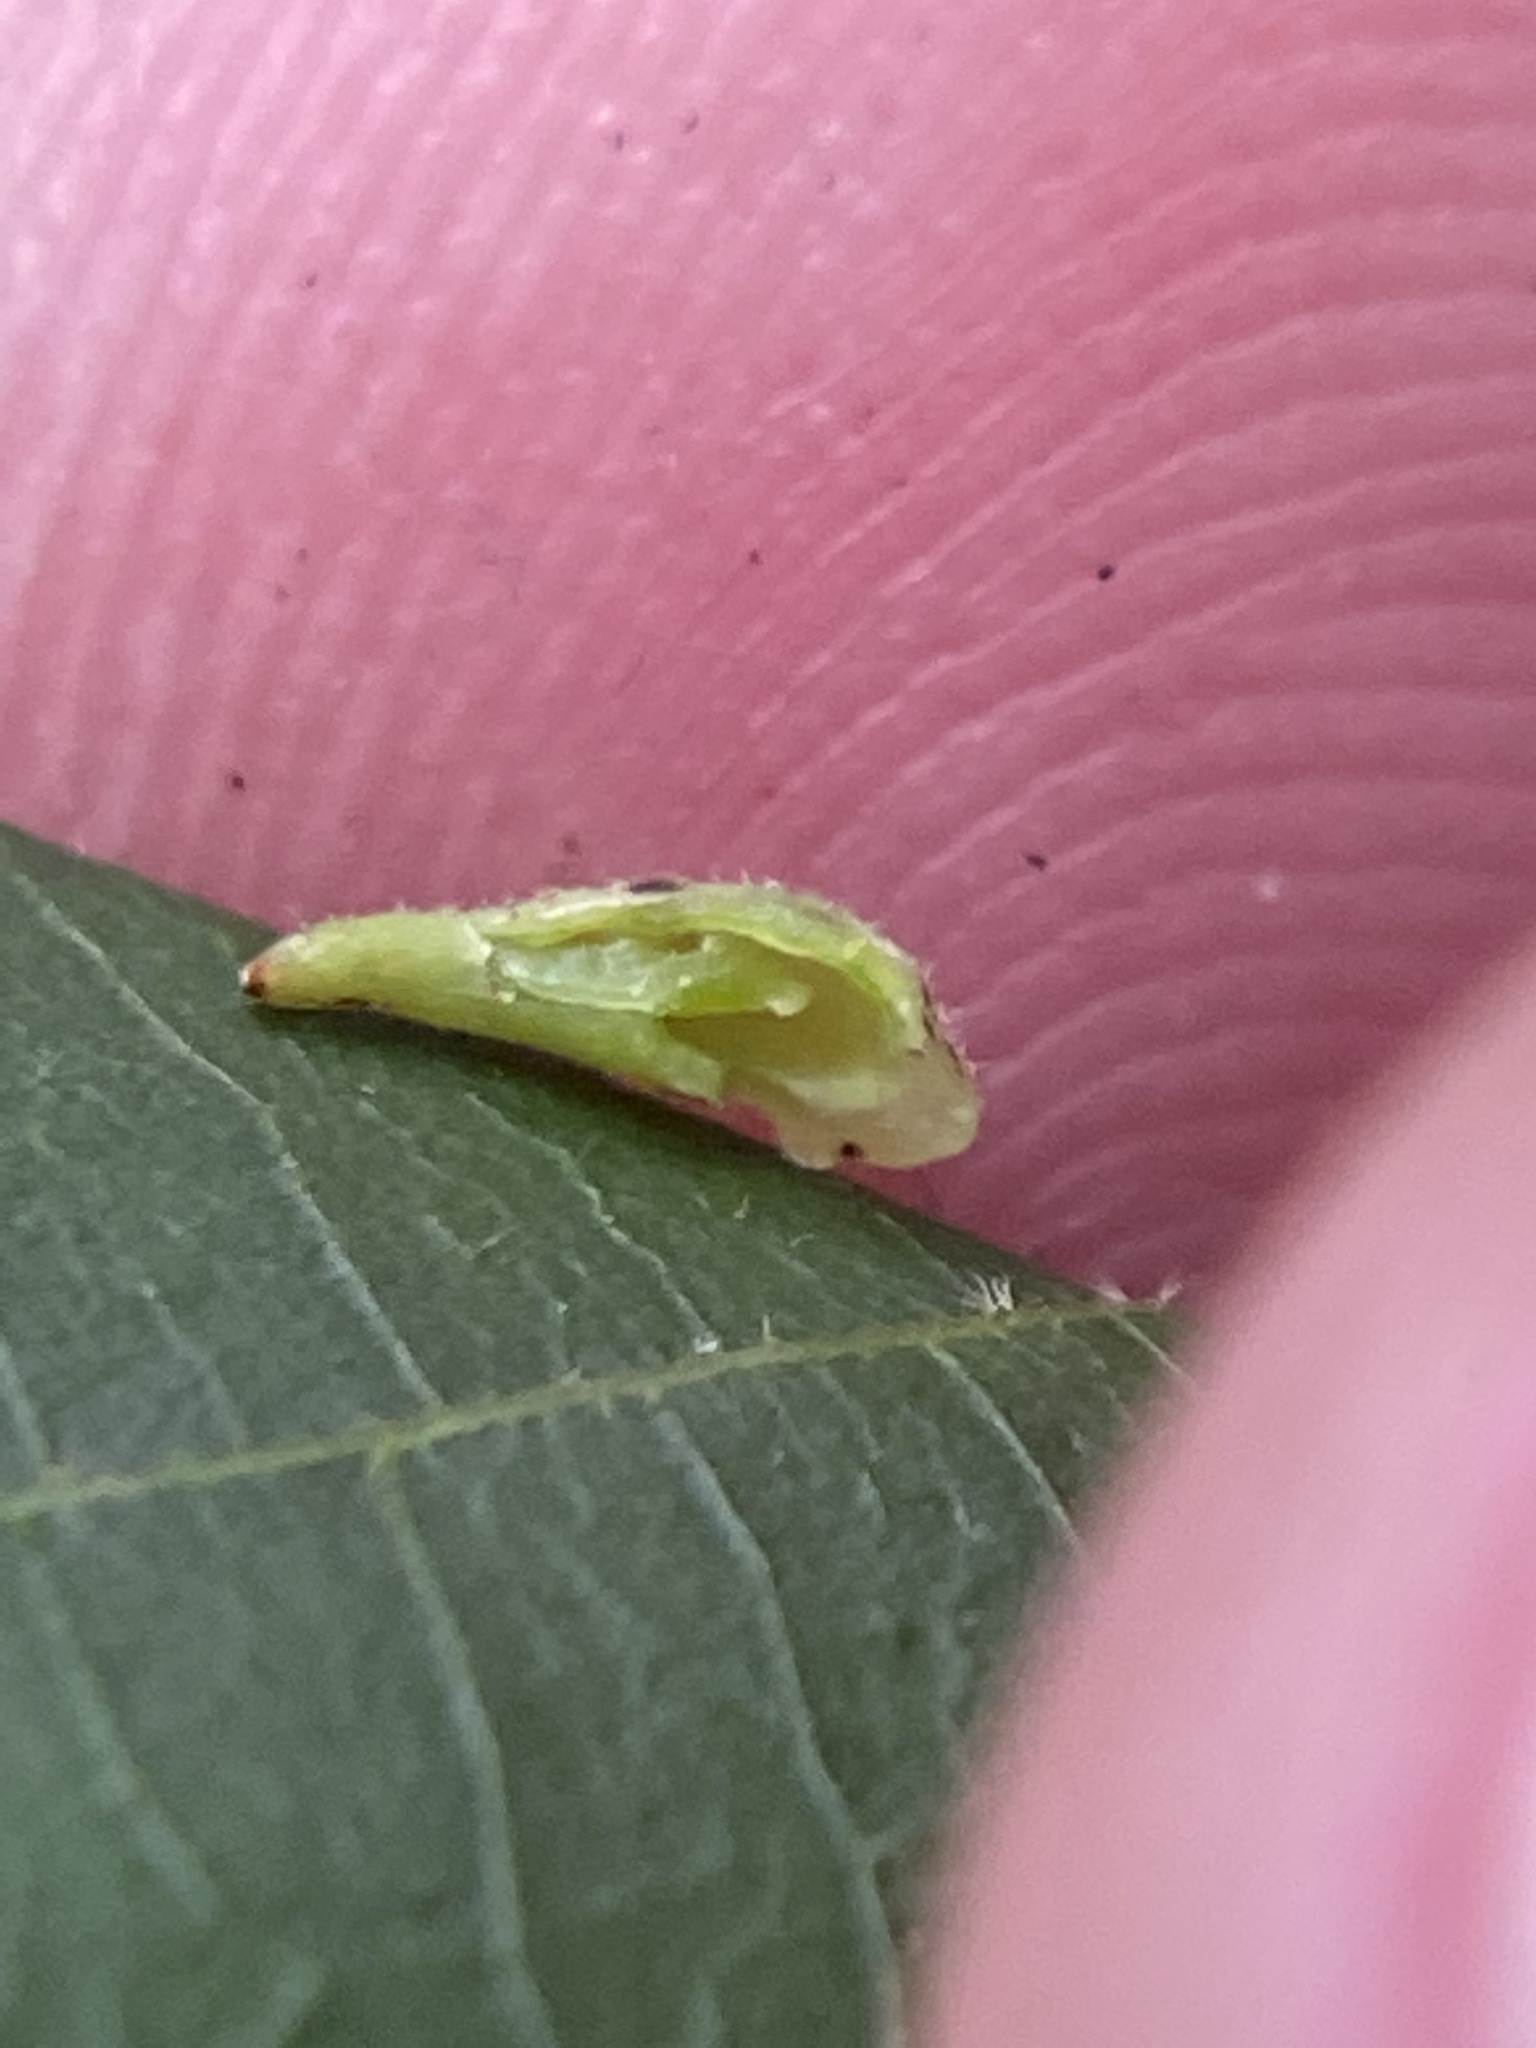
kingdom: Animalia
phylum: Arthropoda
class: Insecta
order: Diptera
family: Cecidomyiidae
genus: Caryomyia
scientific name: Caryomyia spinulosa
